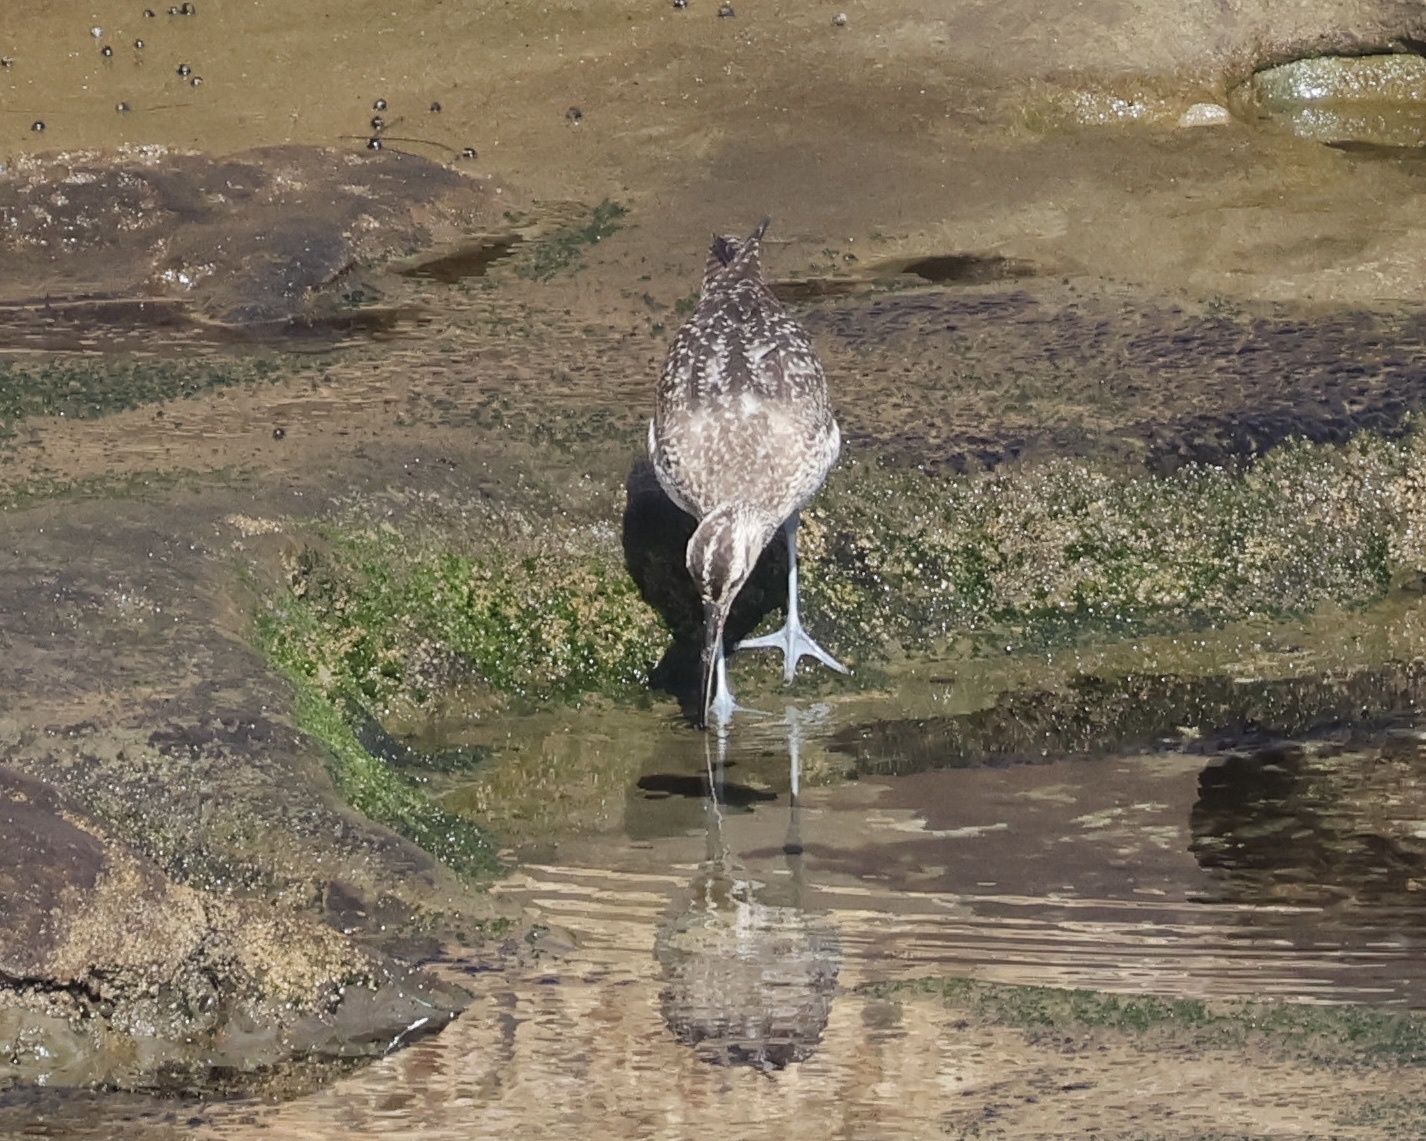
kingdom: Animalia
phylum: Chordata
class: Aves
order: Charadriiformes
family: Scolopacidae
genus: Numenius
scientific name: Numenius phaeopus
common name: Whimbrel
